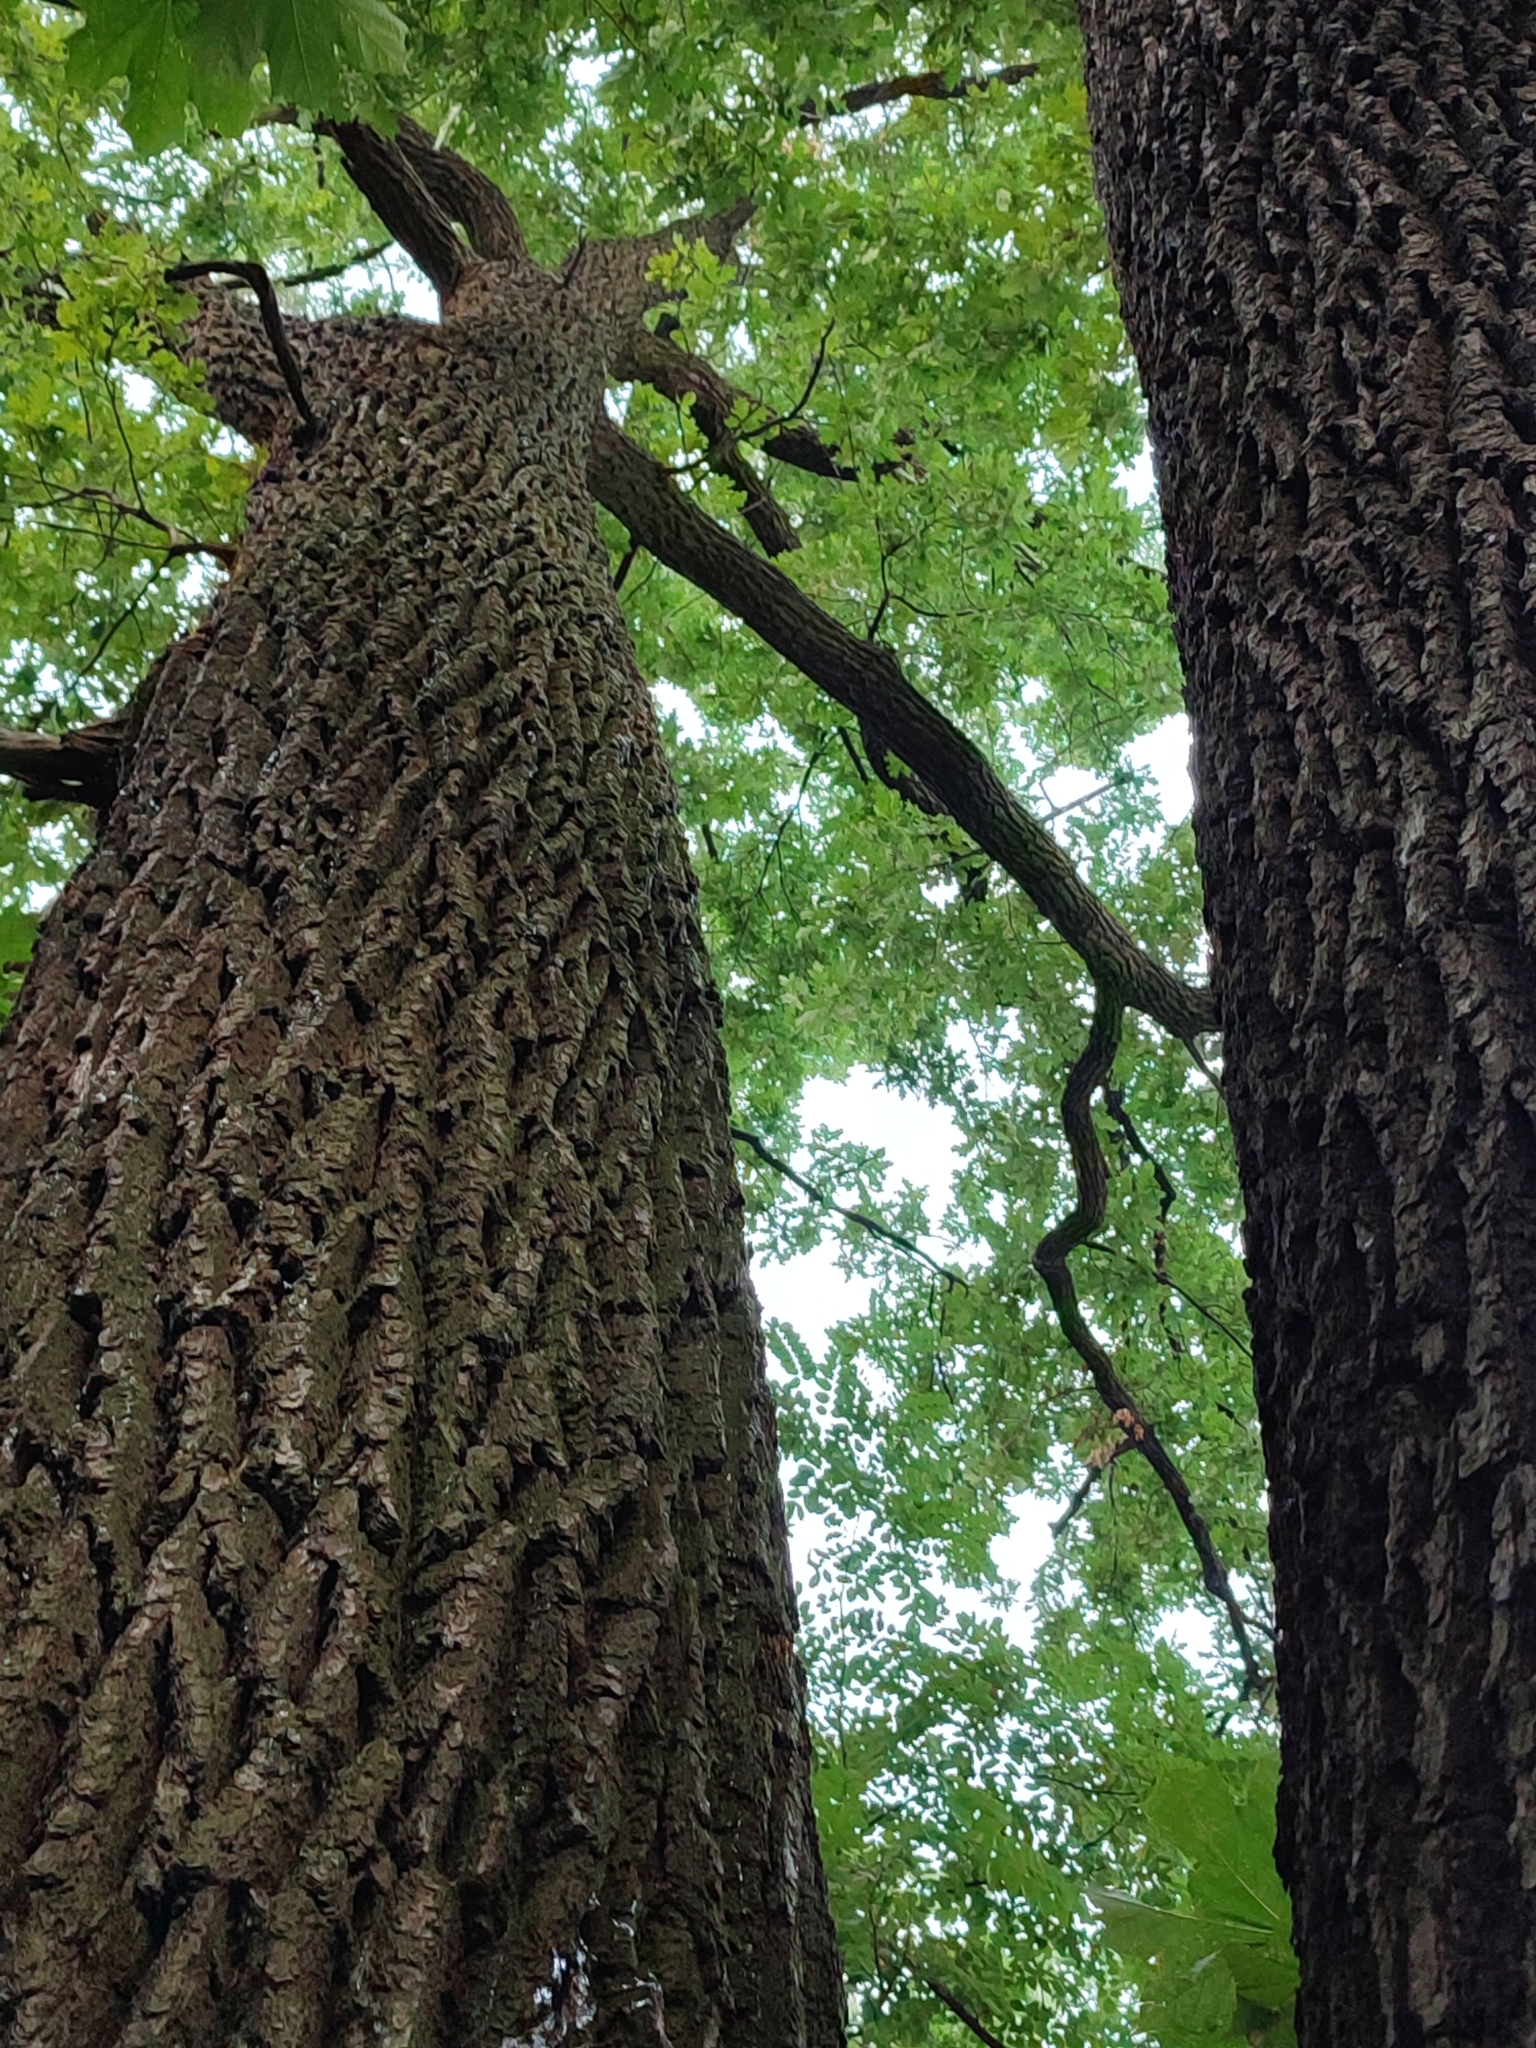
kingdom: Plantae
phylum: Tracheophyta
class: Magnoliopsida
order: Fagales
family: Fagaceae
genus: Quercus
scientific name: Quercus robur
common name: Pedunculate oak
